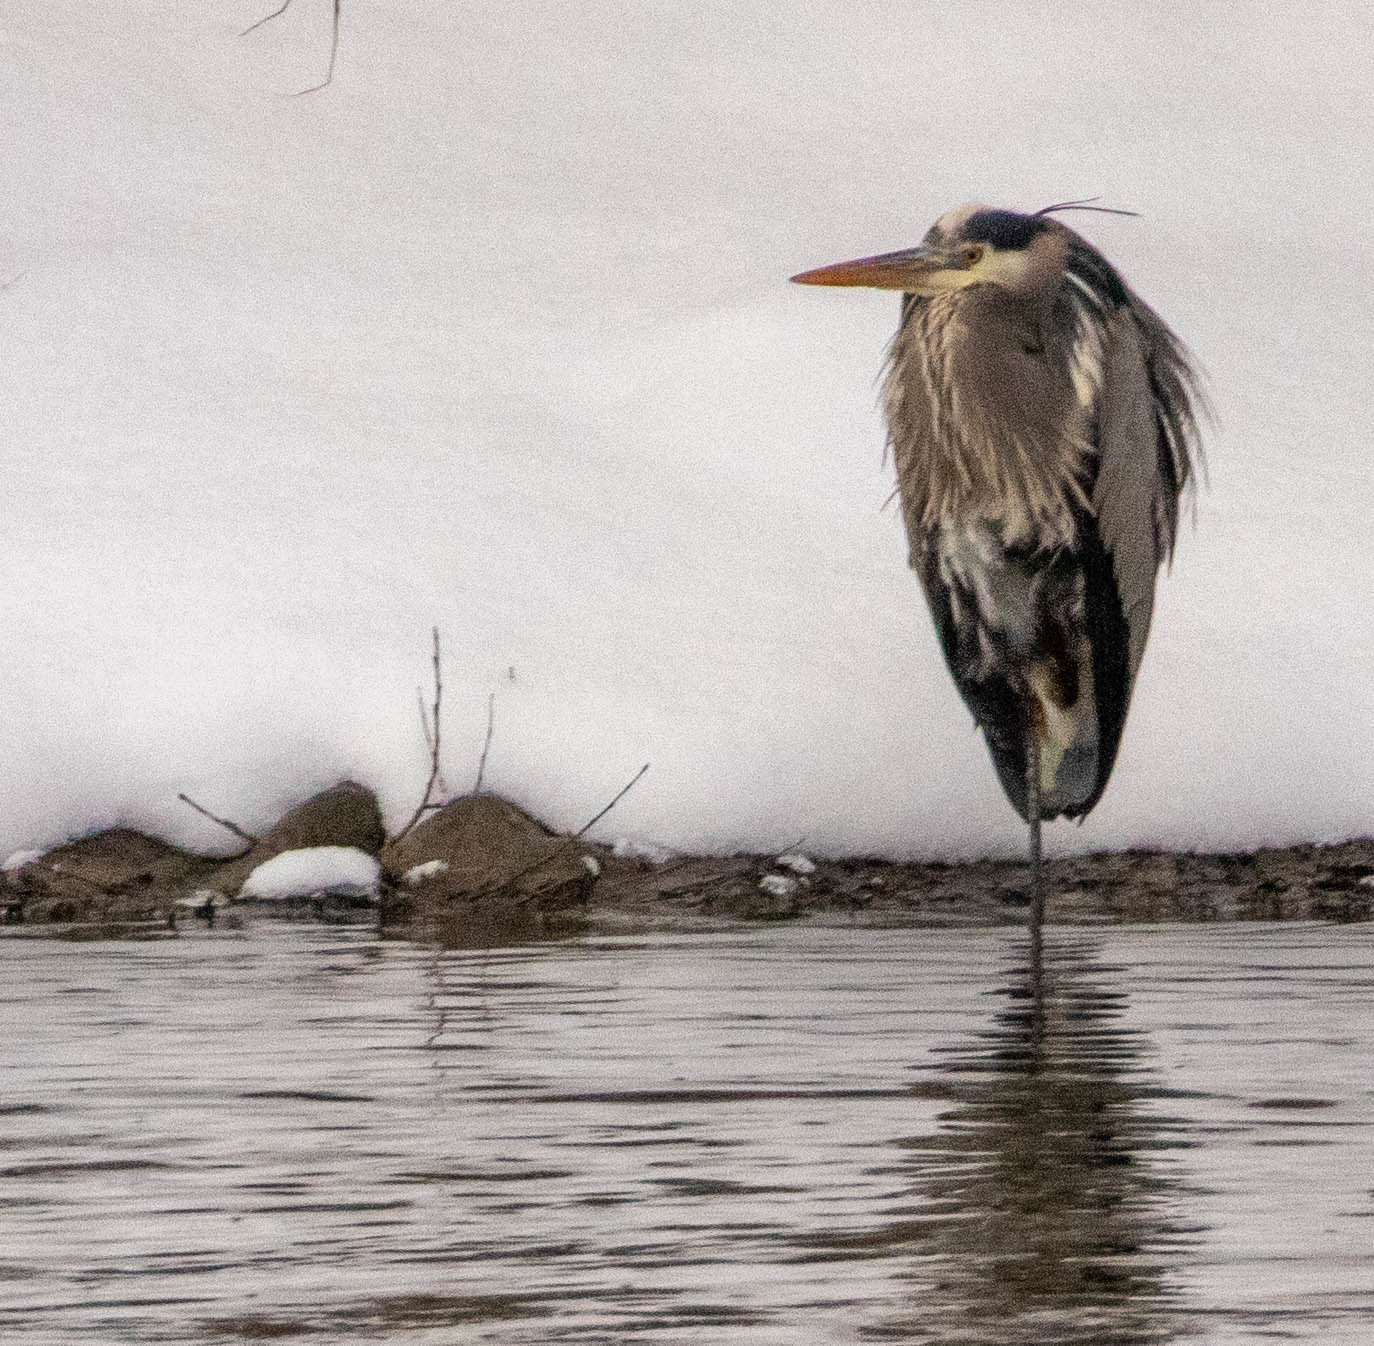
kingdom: Animalia
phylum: Chordata
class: Aves
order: Pelecaniformes
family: Ardeidae
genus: Ardea
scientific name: Ardea herodias
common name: Great blue heron
